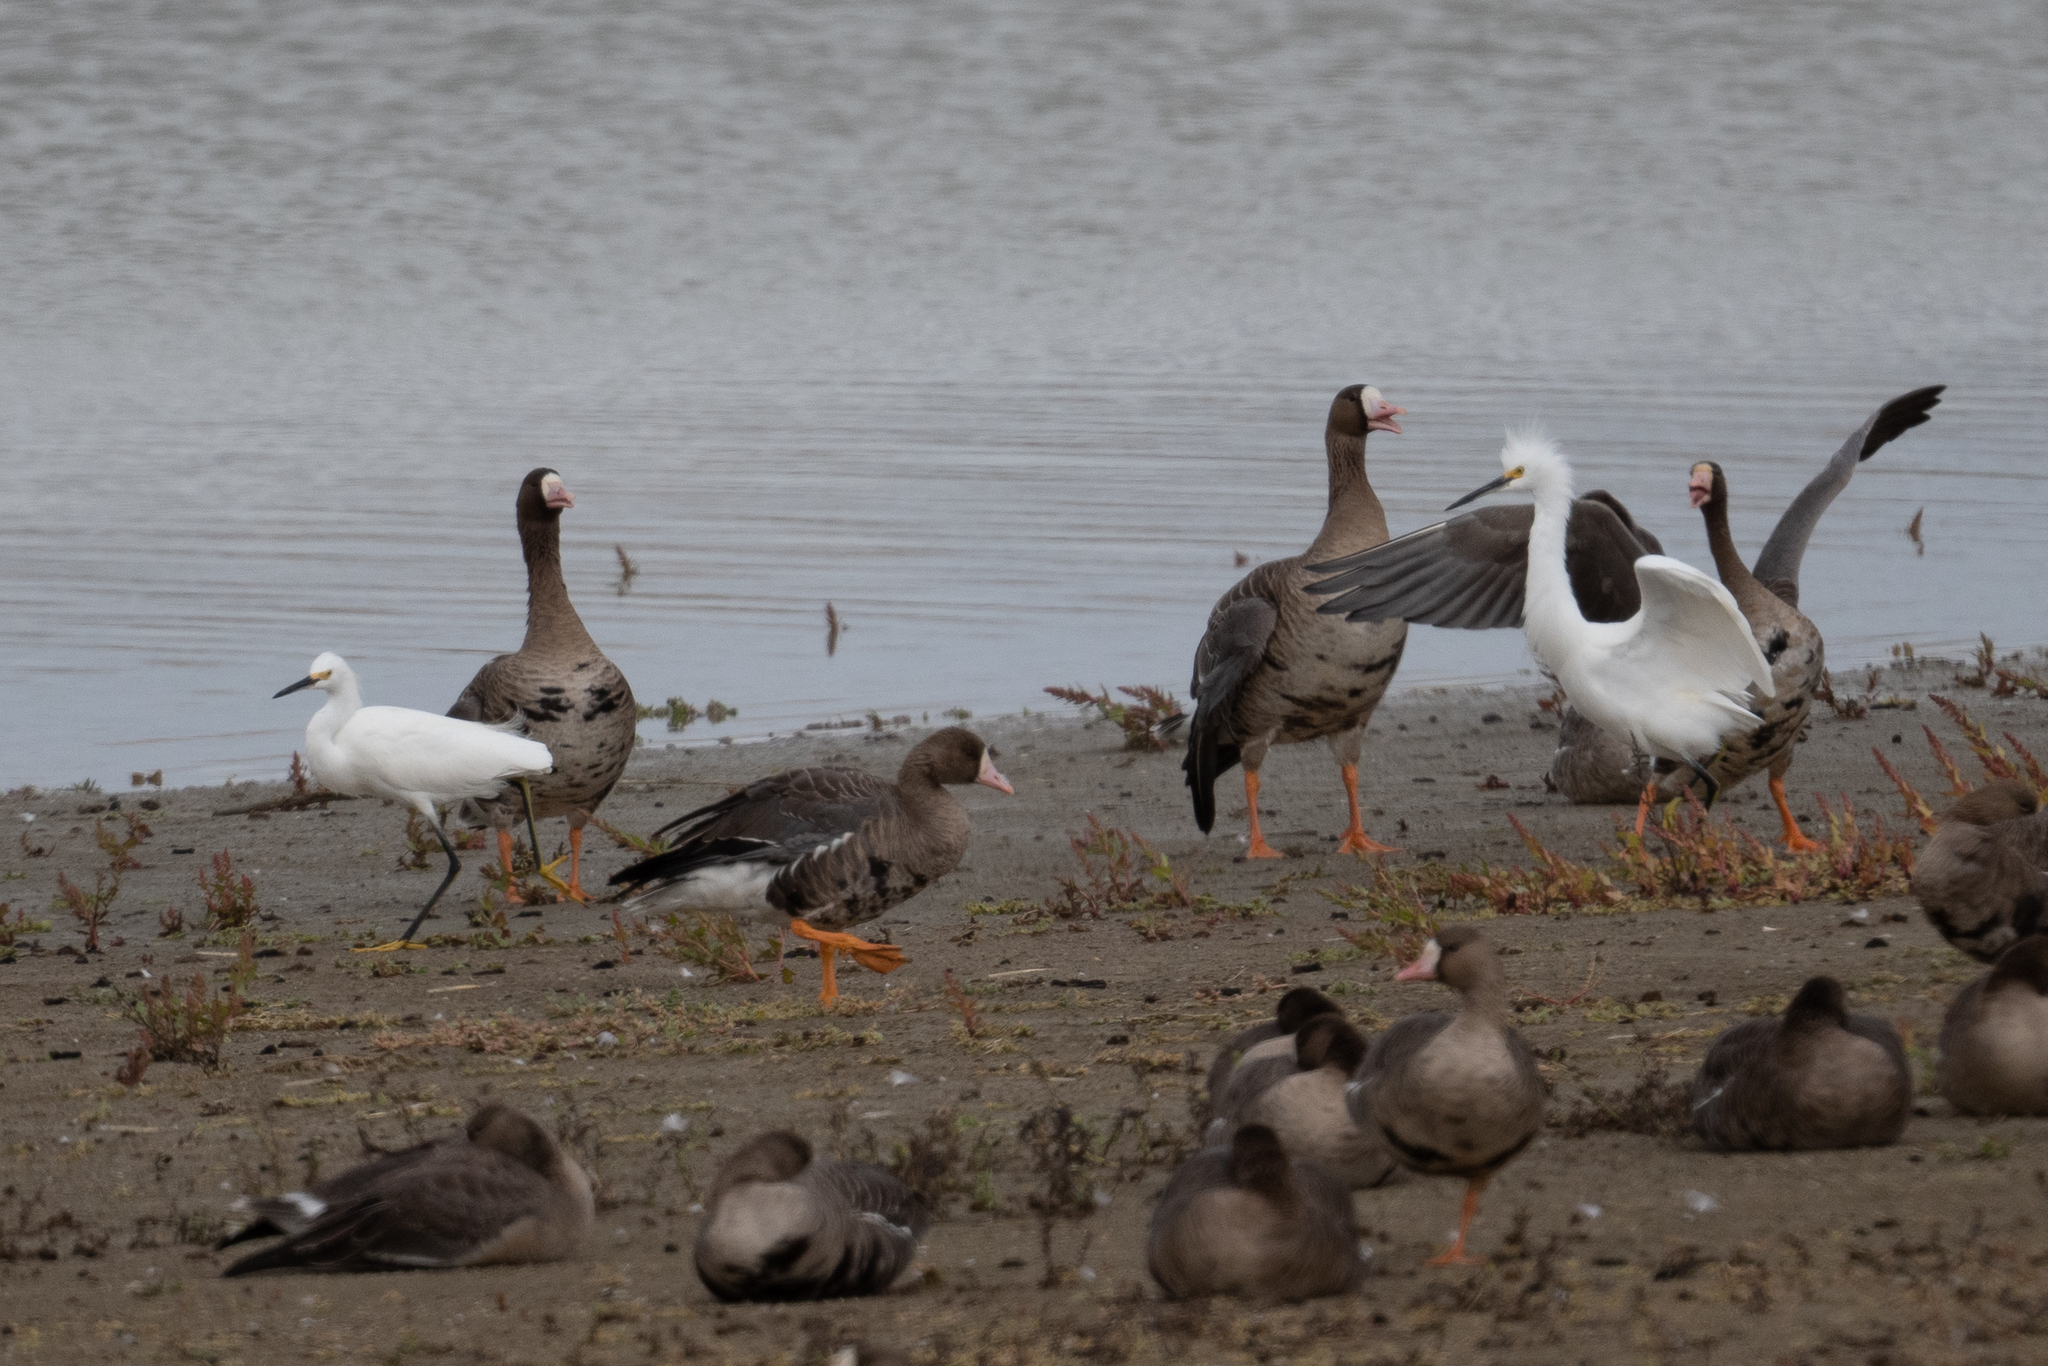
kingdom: Animalia
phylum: Chordata
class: Aves
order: Pelecaniformes
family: Ardeidae
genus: Egretta
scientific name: Egretta thula
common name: Snowy egret
